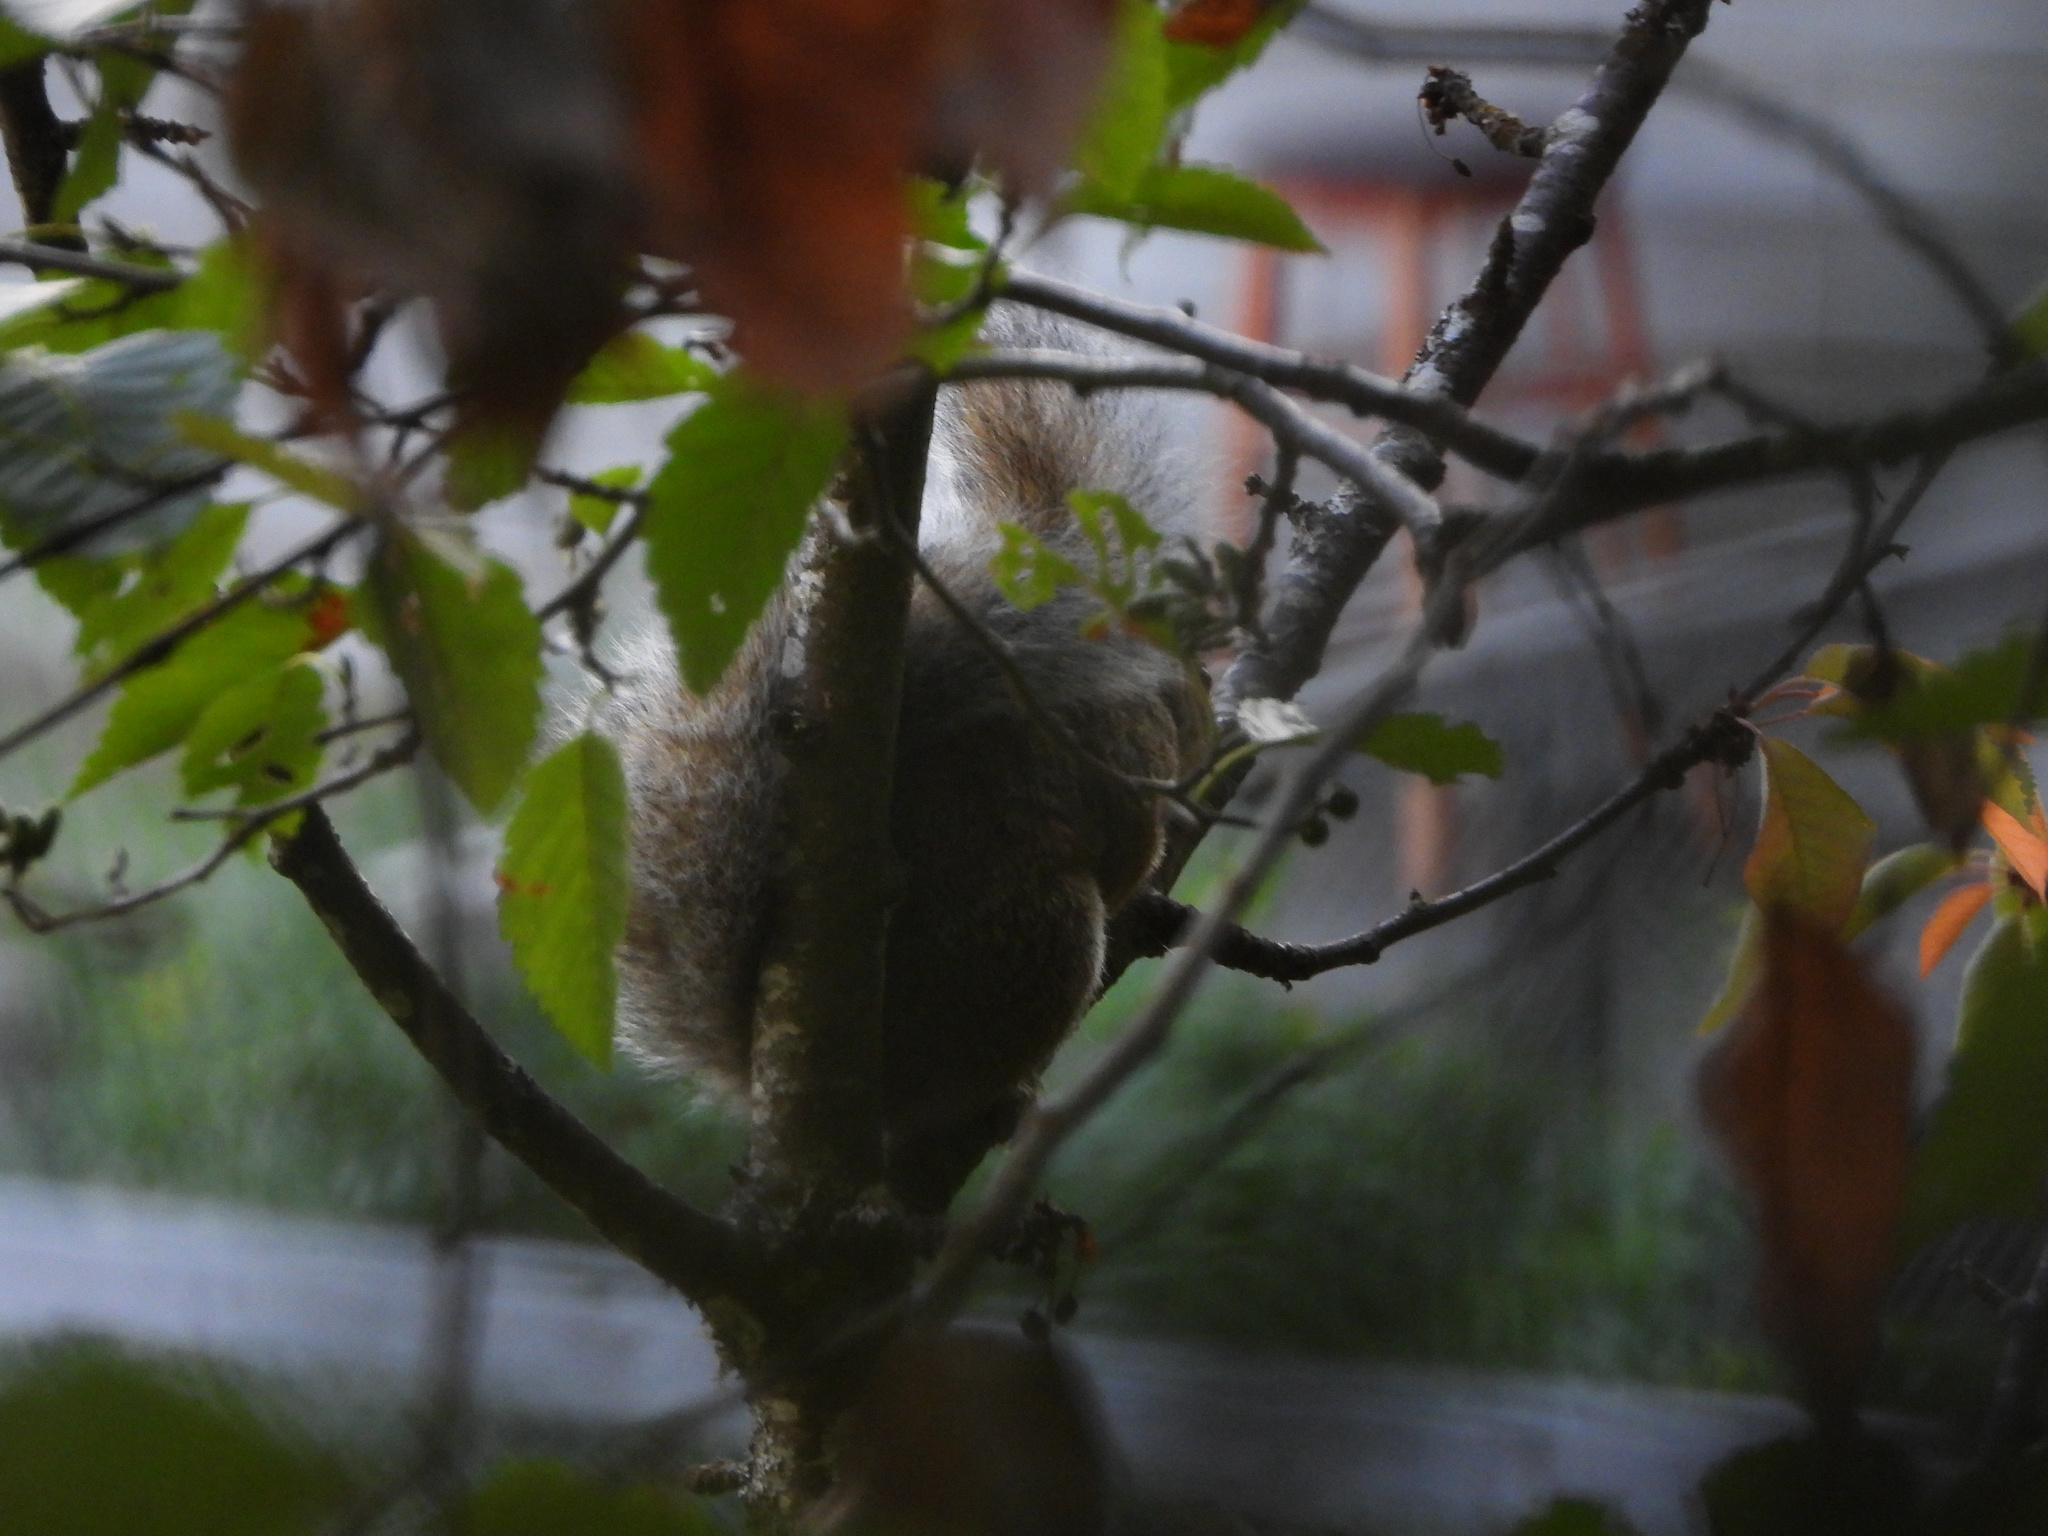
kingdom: Animalia
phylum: Chordata
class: Mammalia
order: Rodentia
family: Sciuridae
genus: Sciurus
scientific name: Sciurus carolinensis
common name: Eastern gray squirrel
